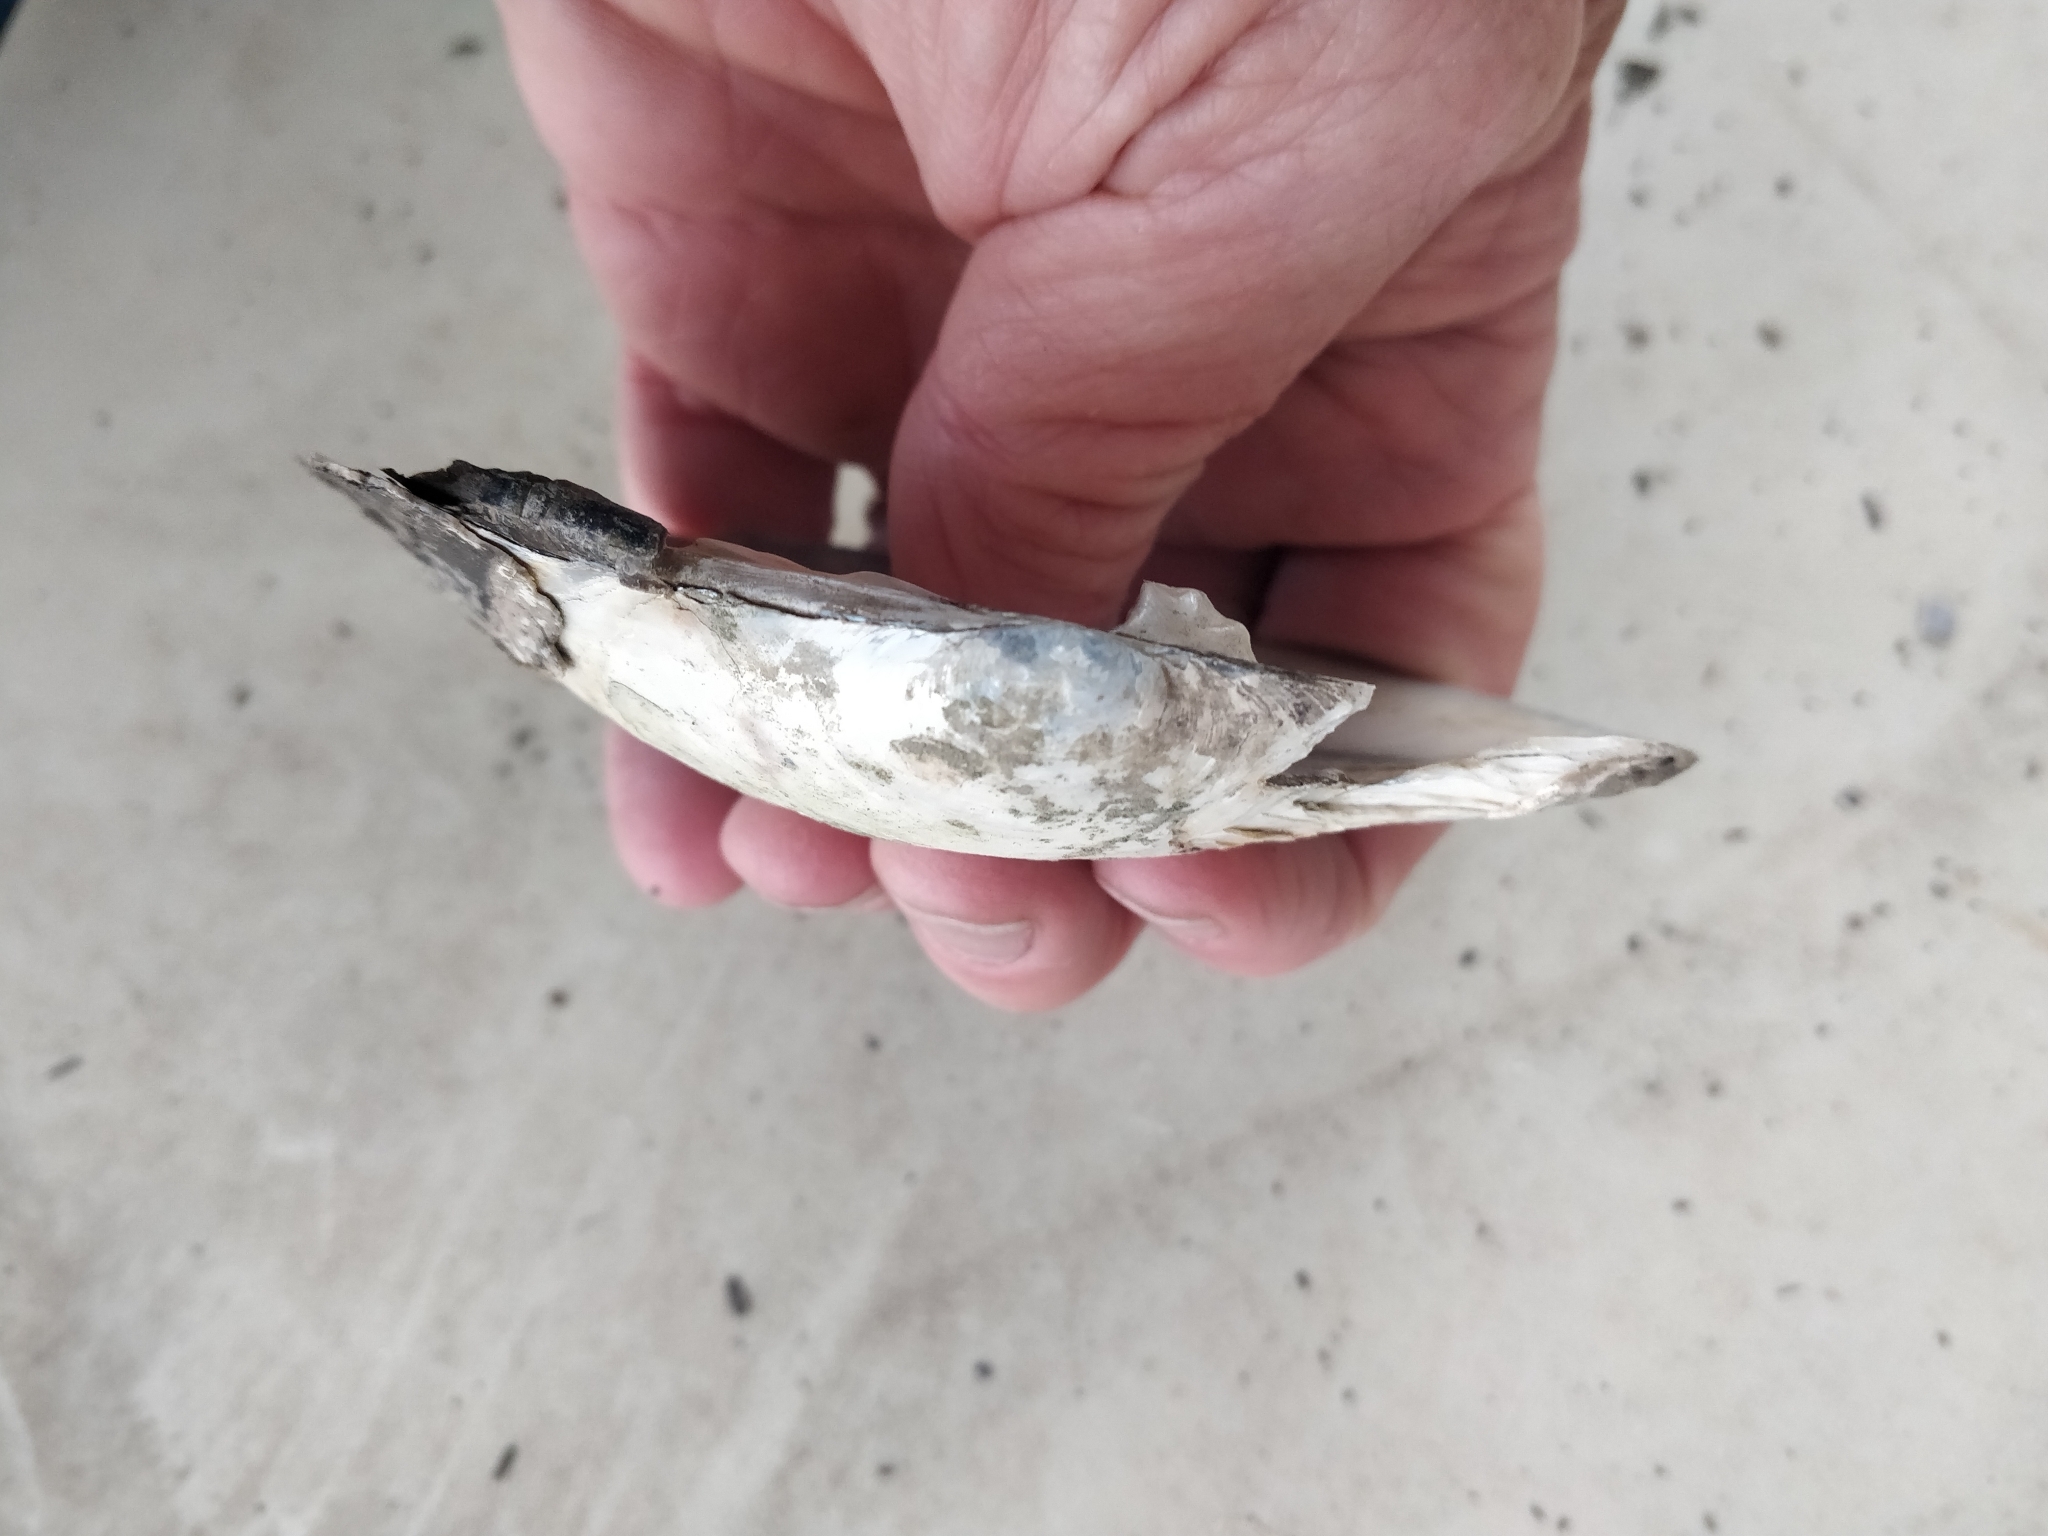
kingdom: Animalia
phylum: Mollusca
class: Bivalvia
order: Unionida
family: Unionidae
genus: Lasmigona
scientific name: Lasmigona complanata
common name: White heelsplitter
